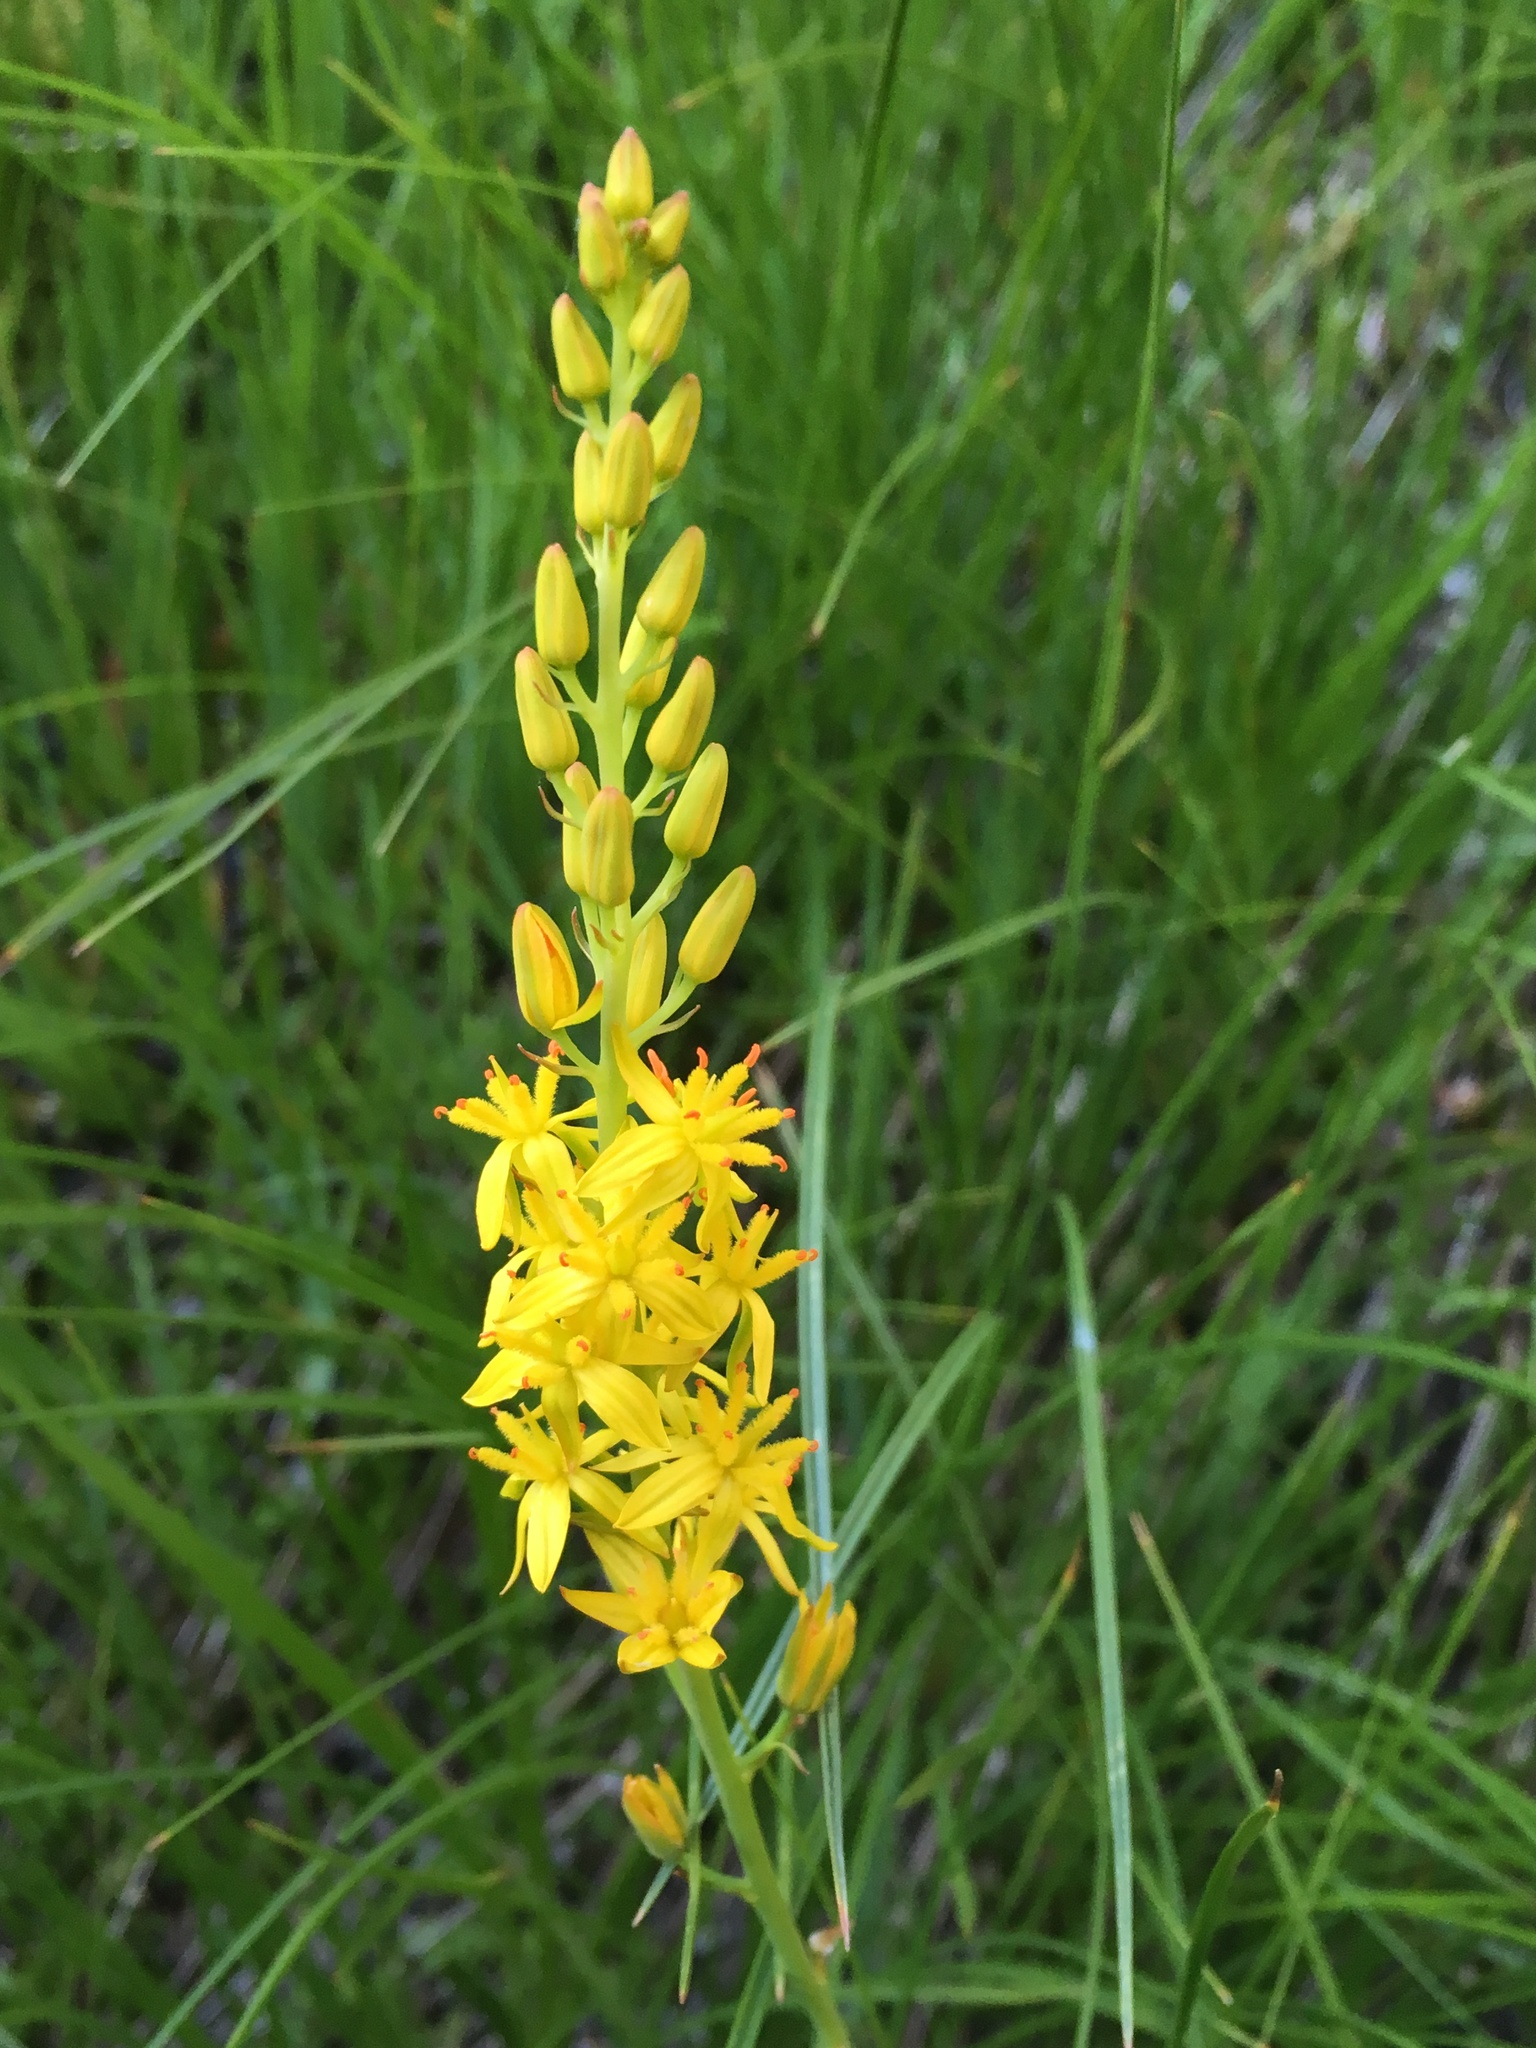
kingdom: Plantae
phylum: Tracheophyta
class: Liliopsida
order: Dioscoreales
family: Nartheciaceae
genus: Narthecium
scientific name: Narthecium californicum
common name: California bog-asphodel
